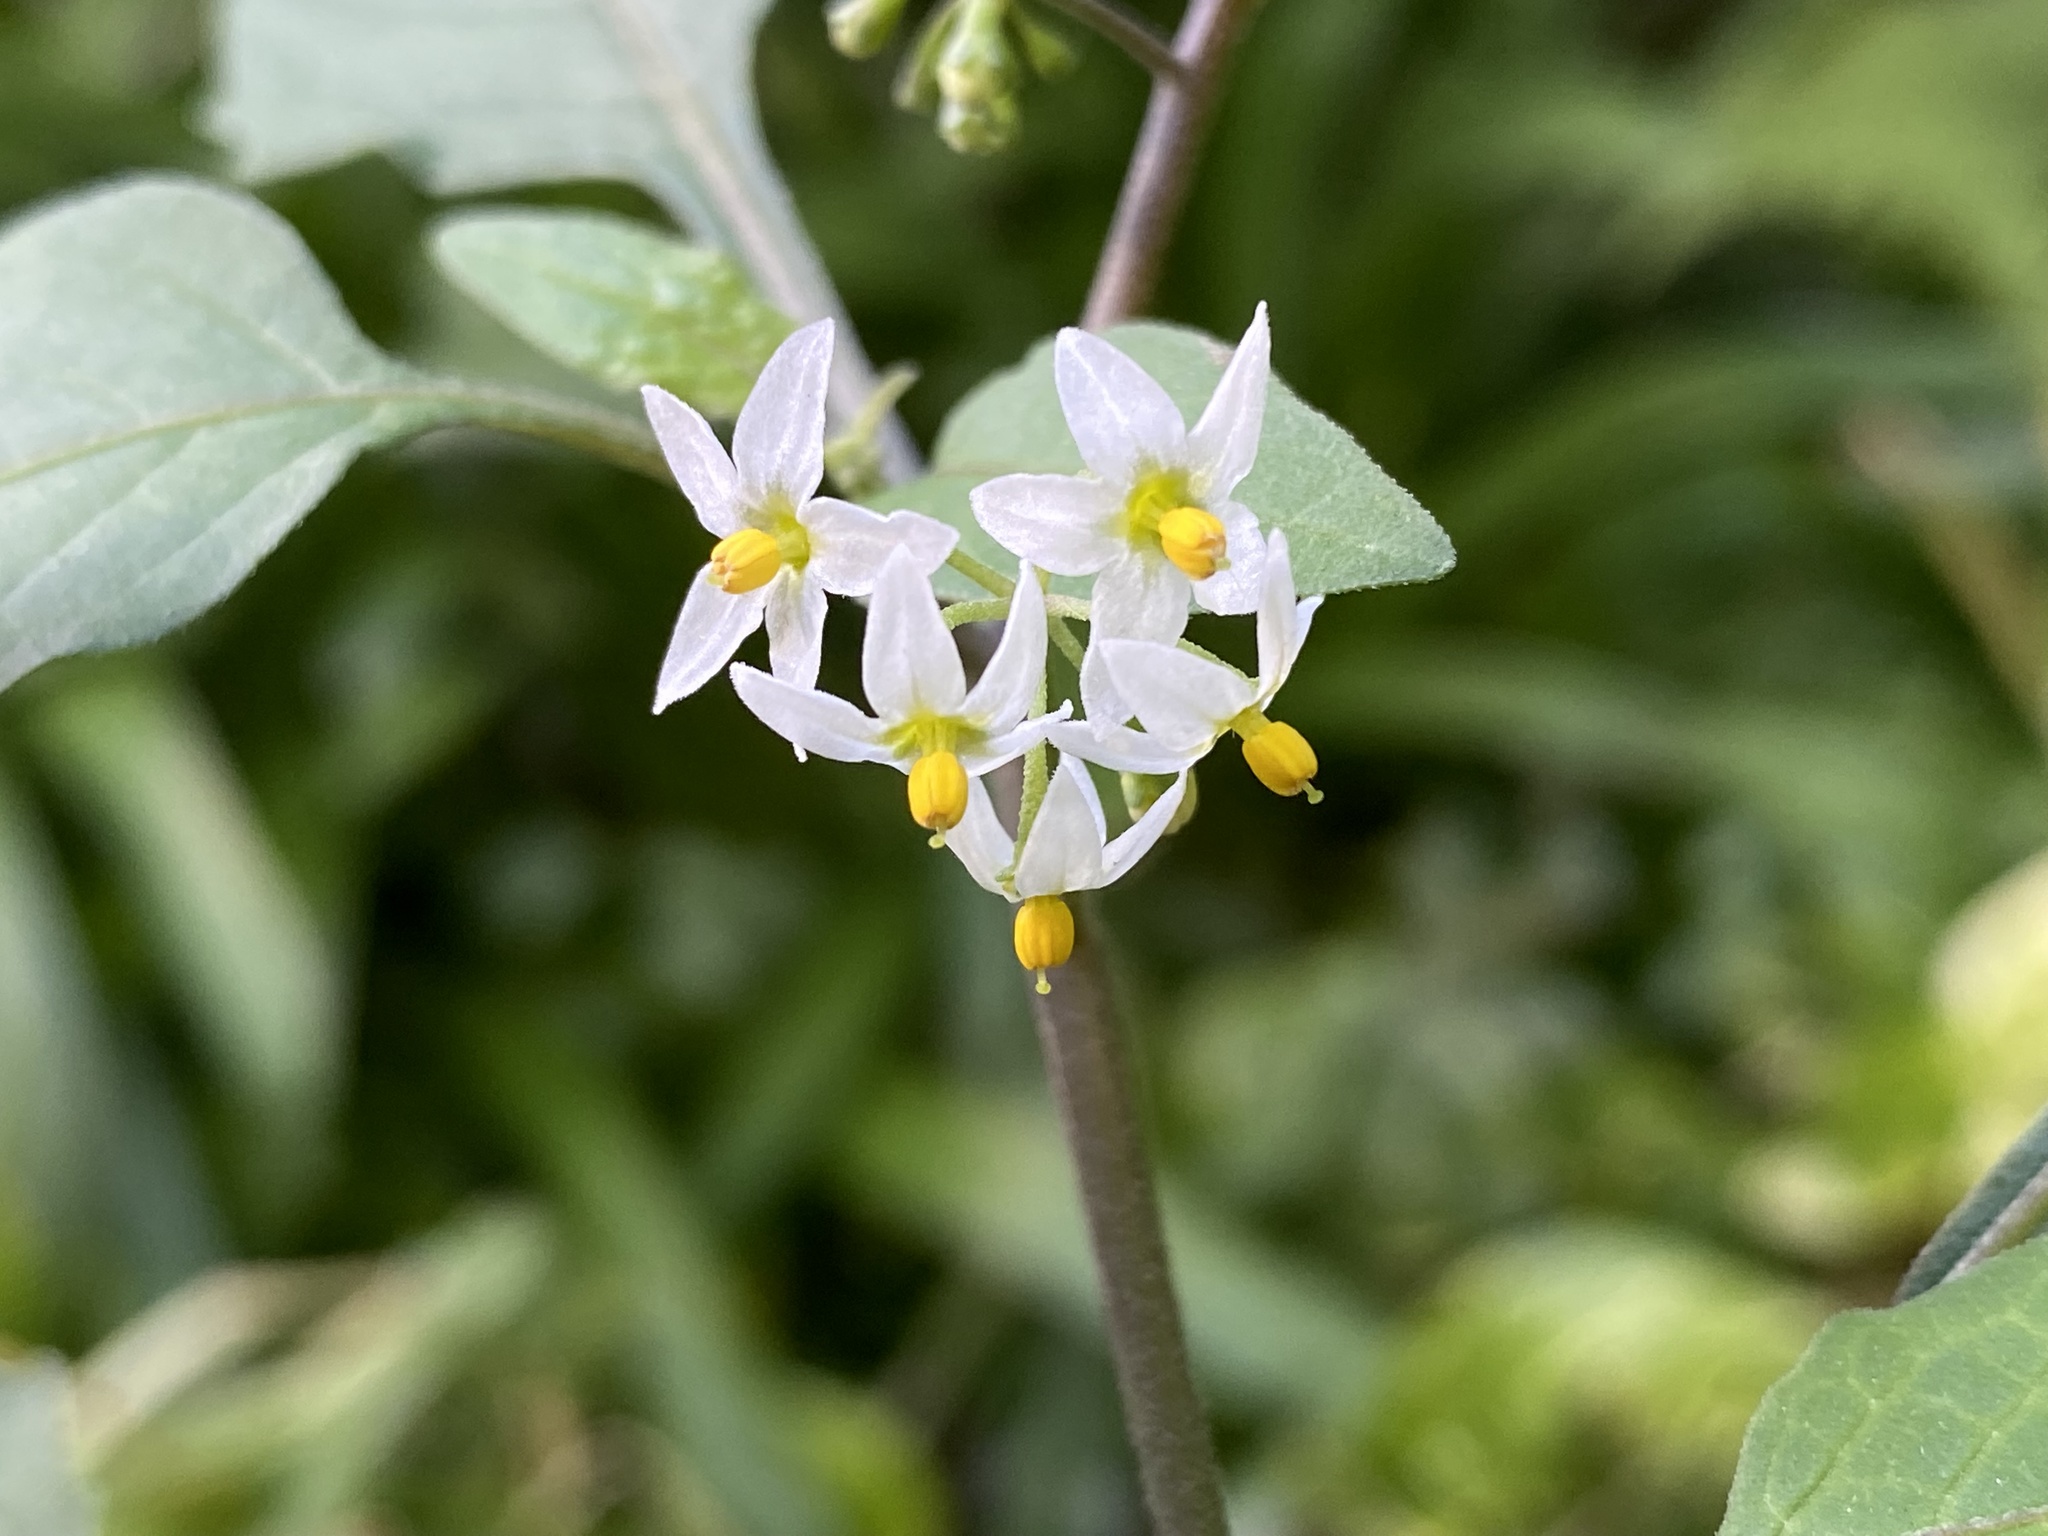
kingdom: Plantae
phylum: Tracheophyta
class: Magnoliopsida
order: Solanales
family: Solanaceae
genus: Solanum
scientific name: Solanum americanum
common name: American black nightshade
